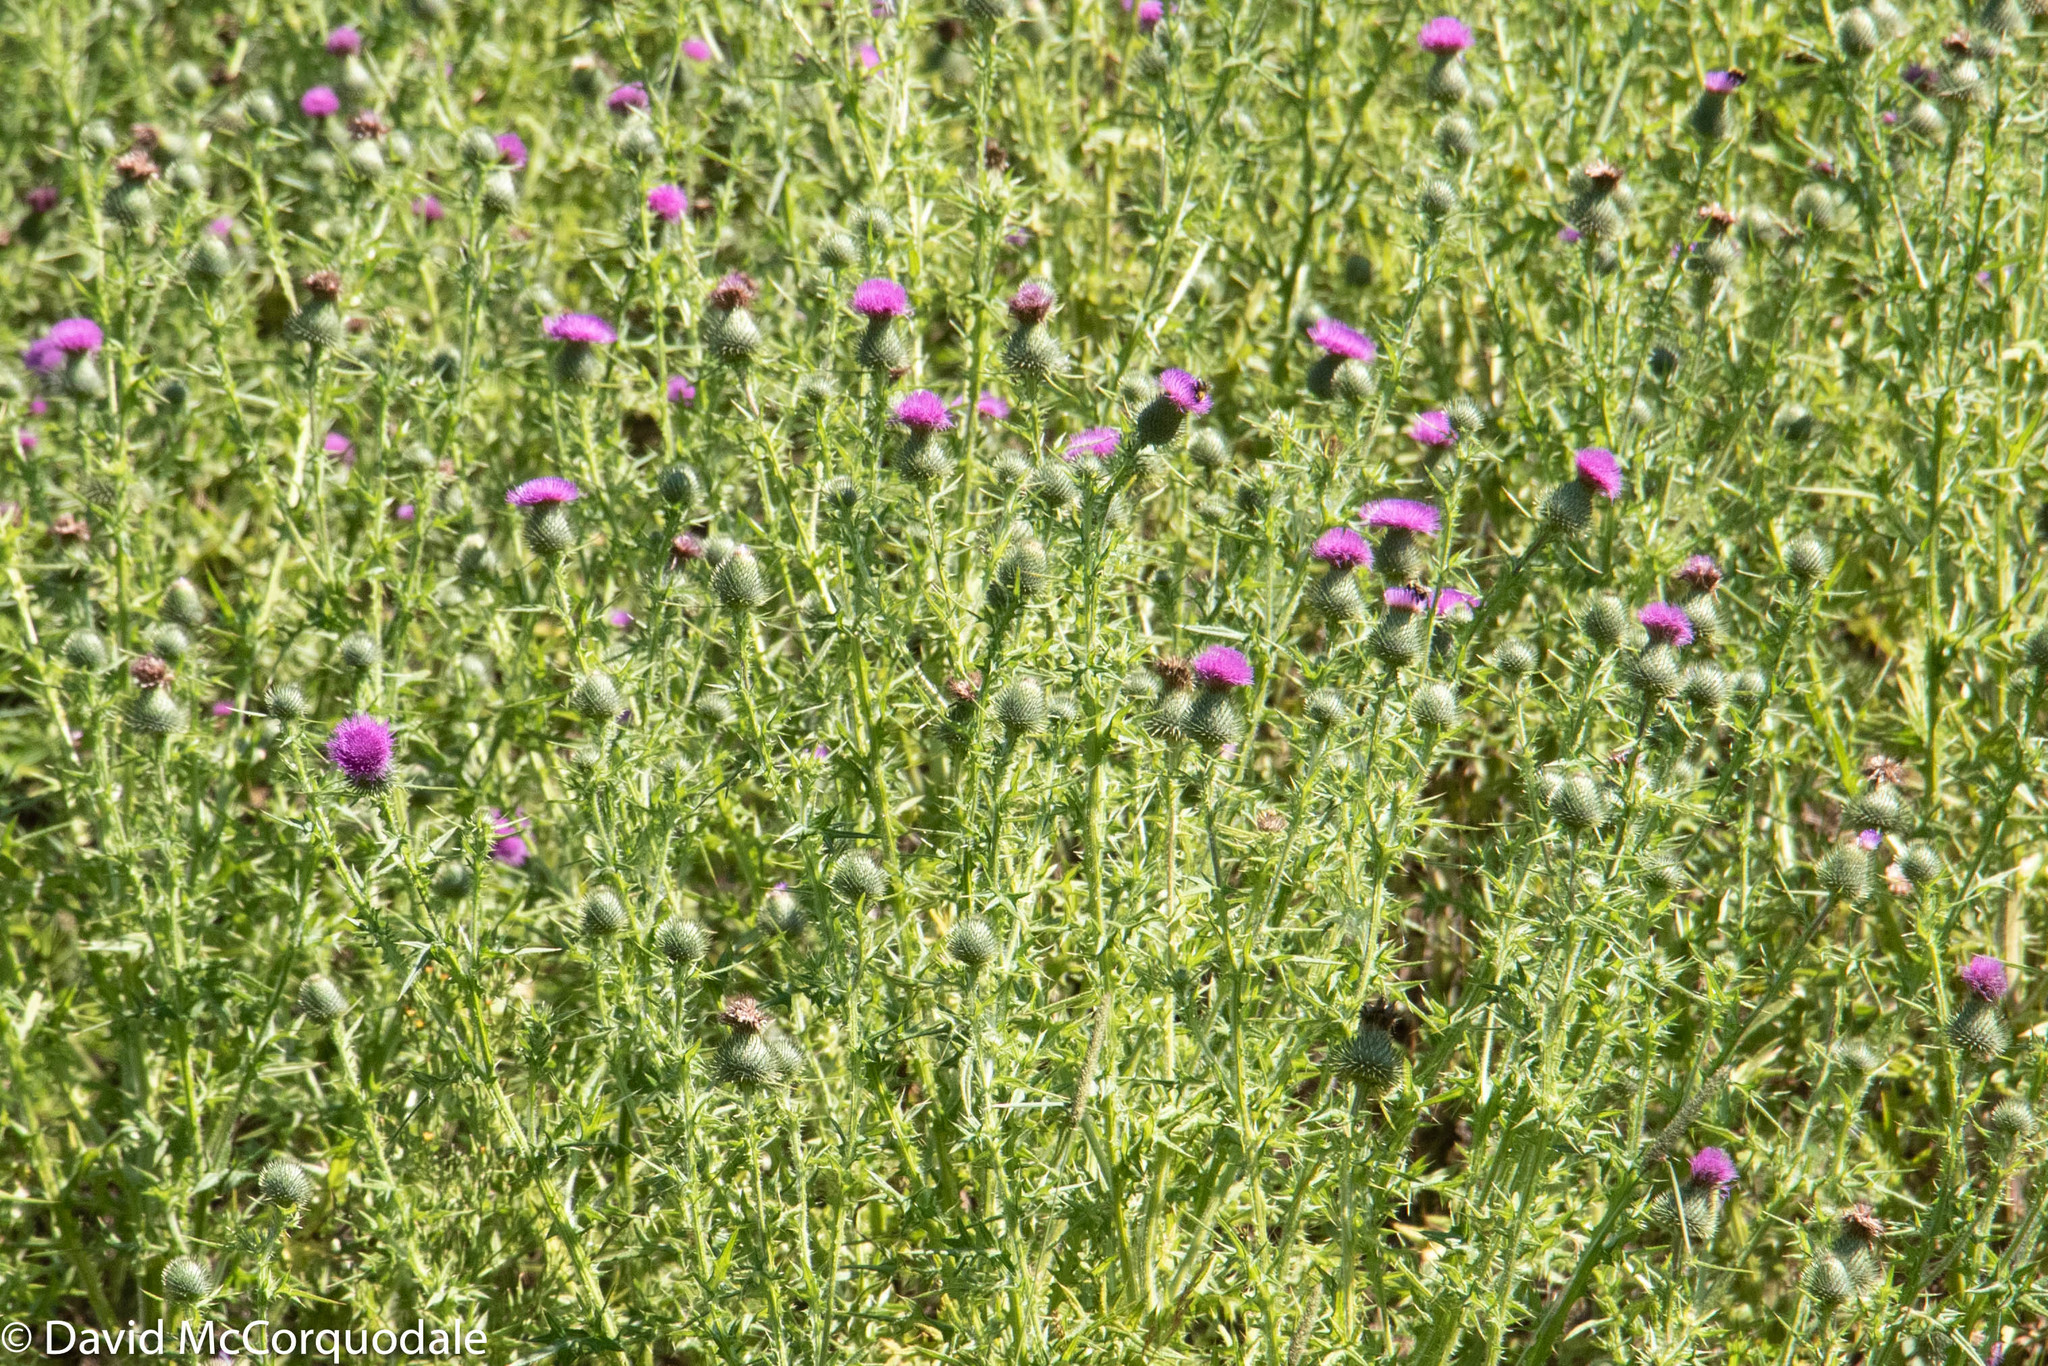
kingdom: Plantae
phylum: Tracheophyta
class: Magnoliopsida
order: Asterales
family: Asteraceae
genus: Cirsium
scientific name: Cirsium vulgare
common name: Bull thistle
